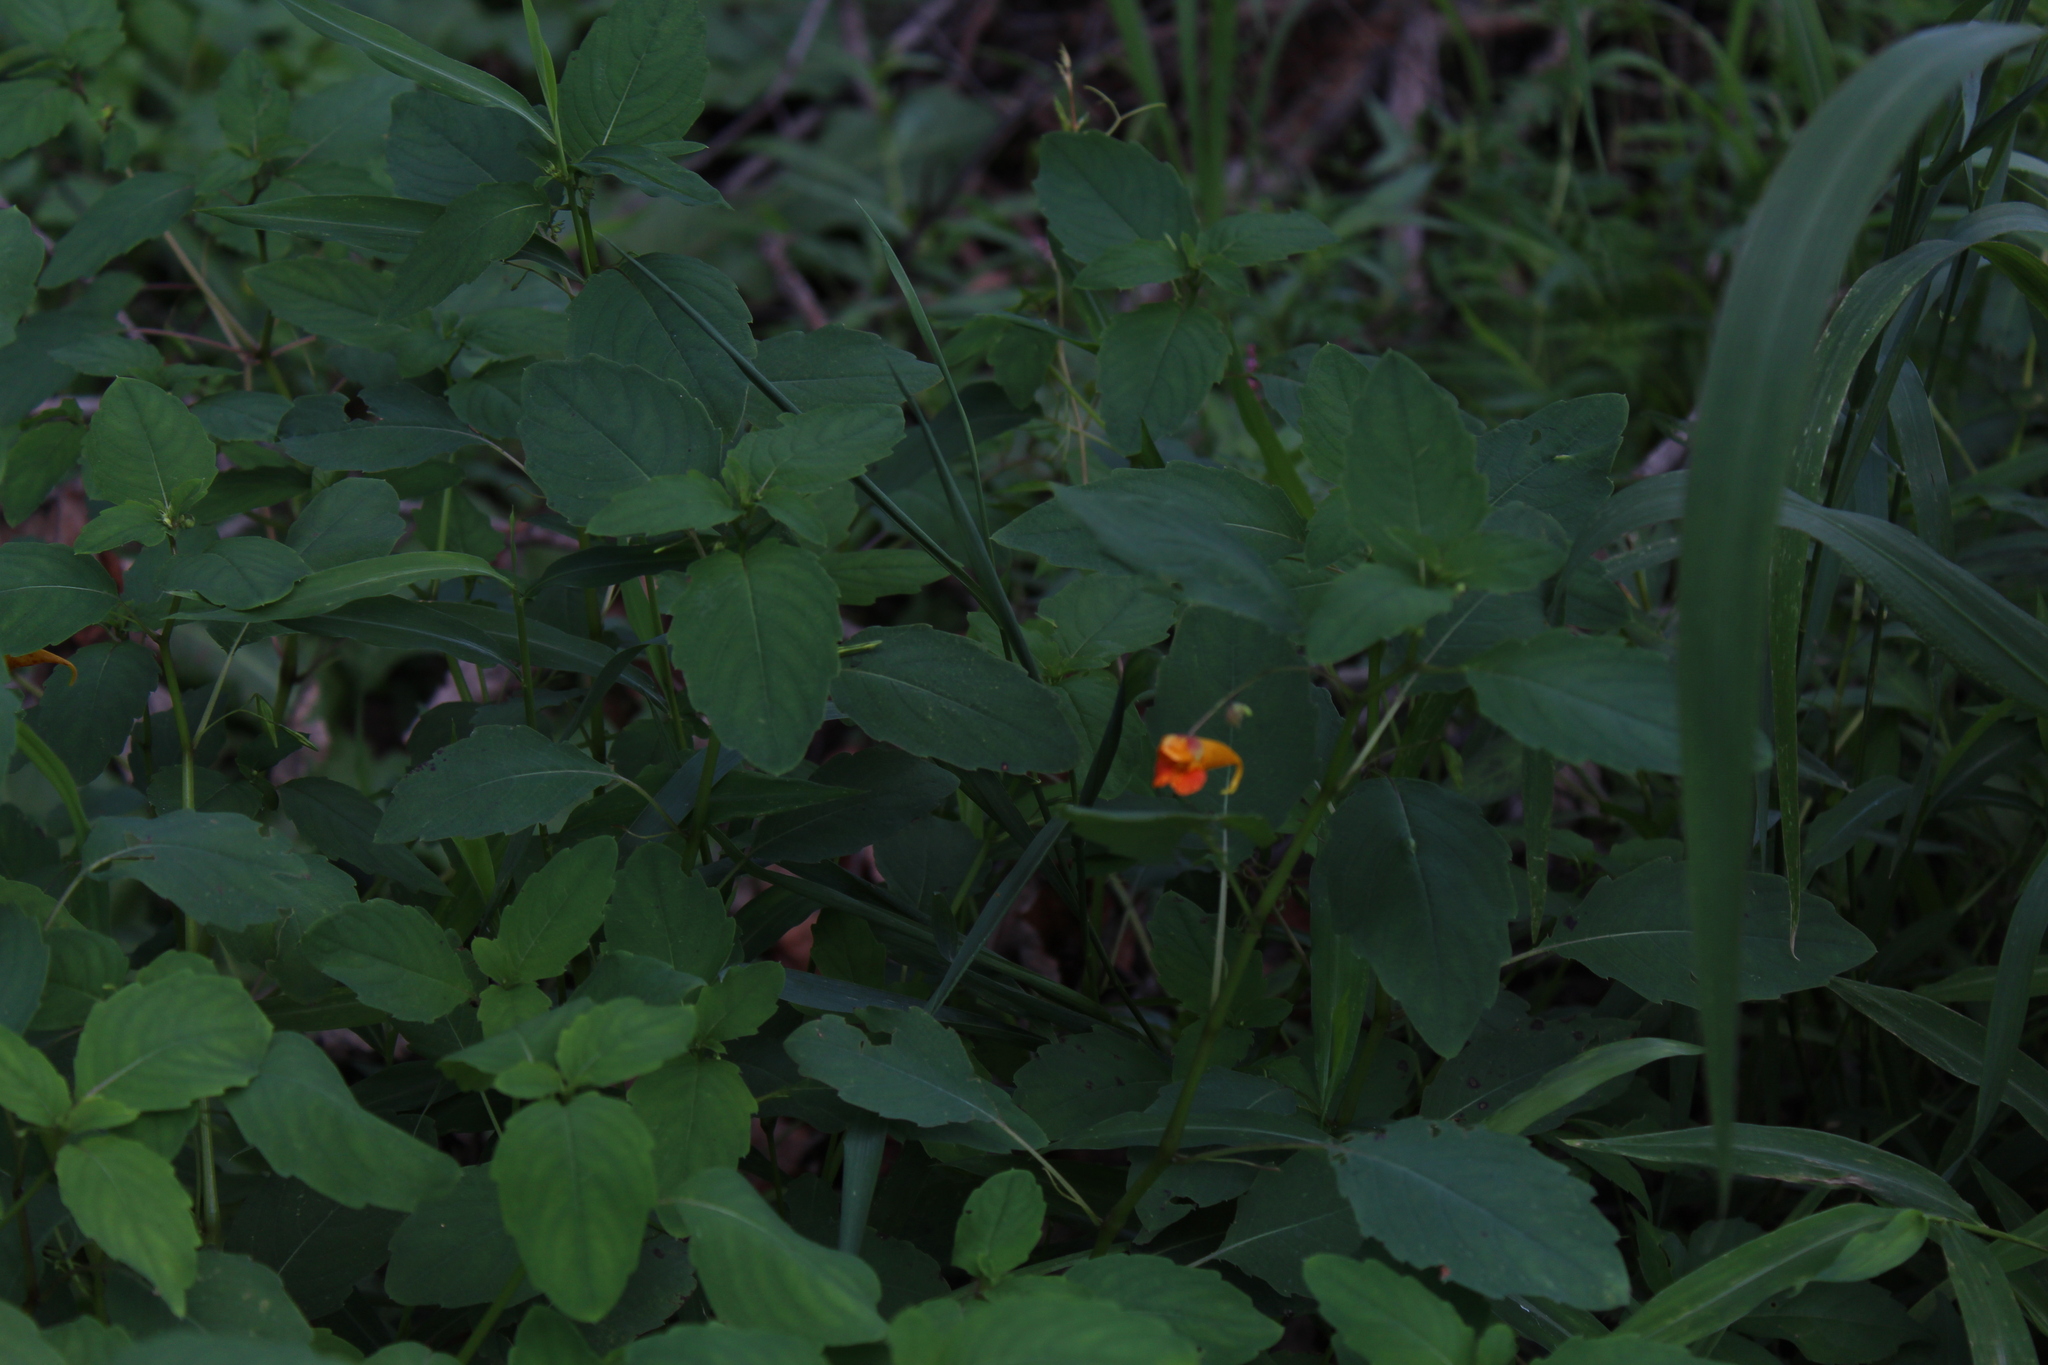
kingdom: Plantae
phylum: Tracheophyta
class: Magnoliopsida
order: Ericales
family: Balsaminaceae
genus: Impatiens
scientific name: Impatiens capensis
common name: Orange balsam
